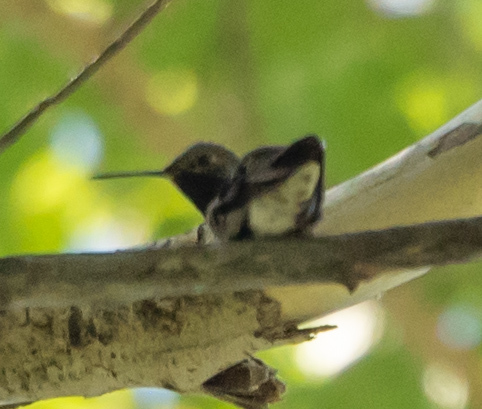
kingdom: Animalia
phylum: Chordata
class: Aves
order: Apodiformes
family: Trochilidae
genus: Archilochus
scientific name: Archilochus alexandri
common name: Black-chinned hummingbird
